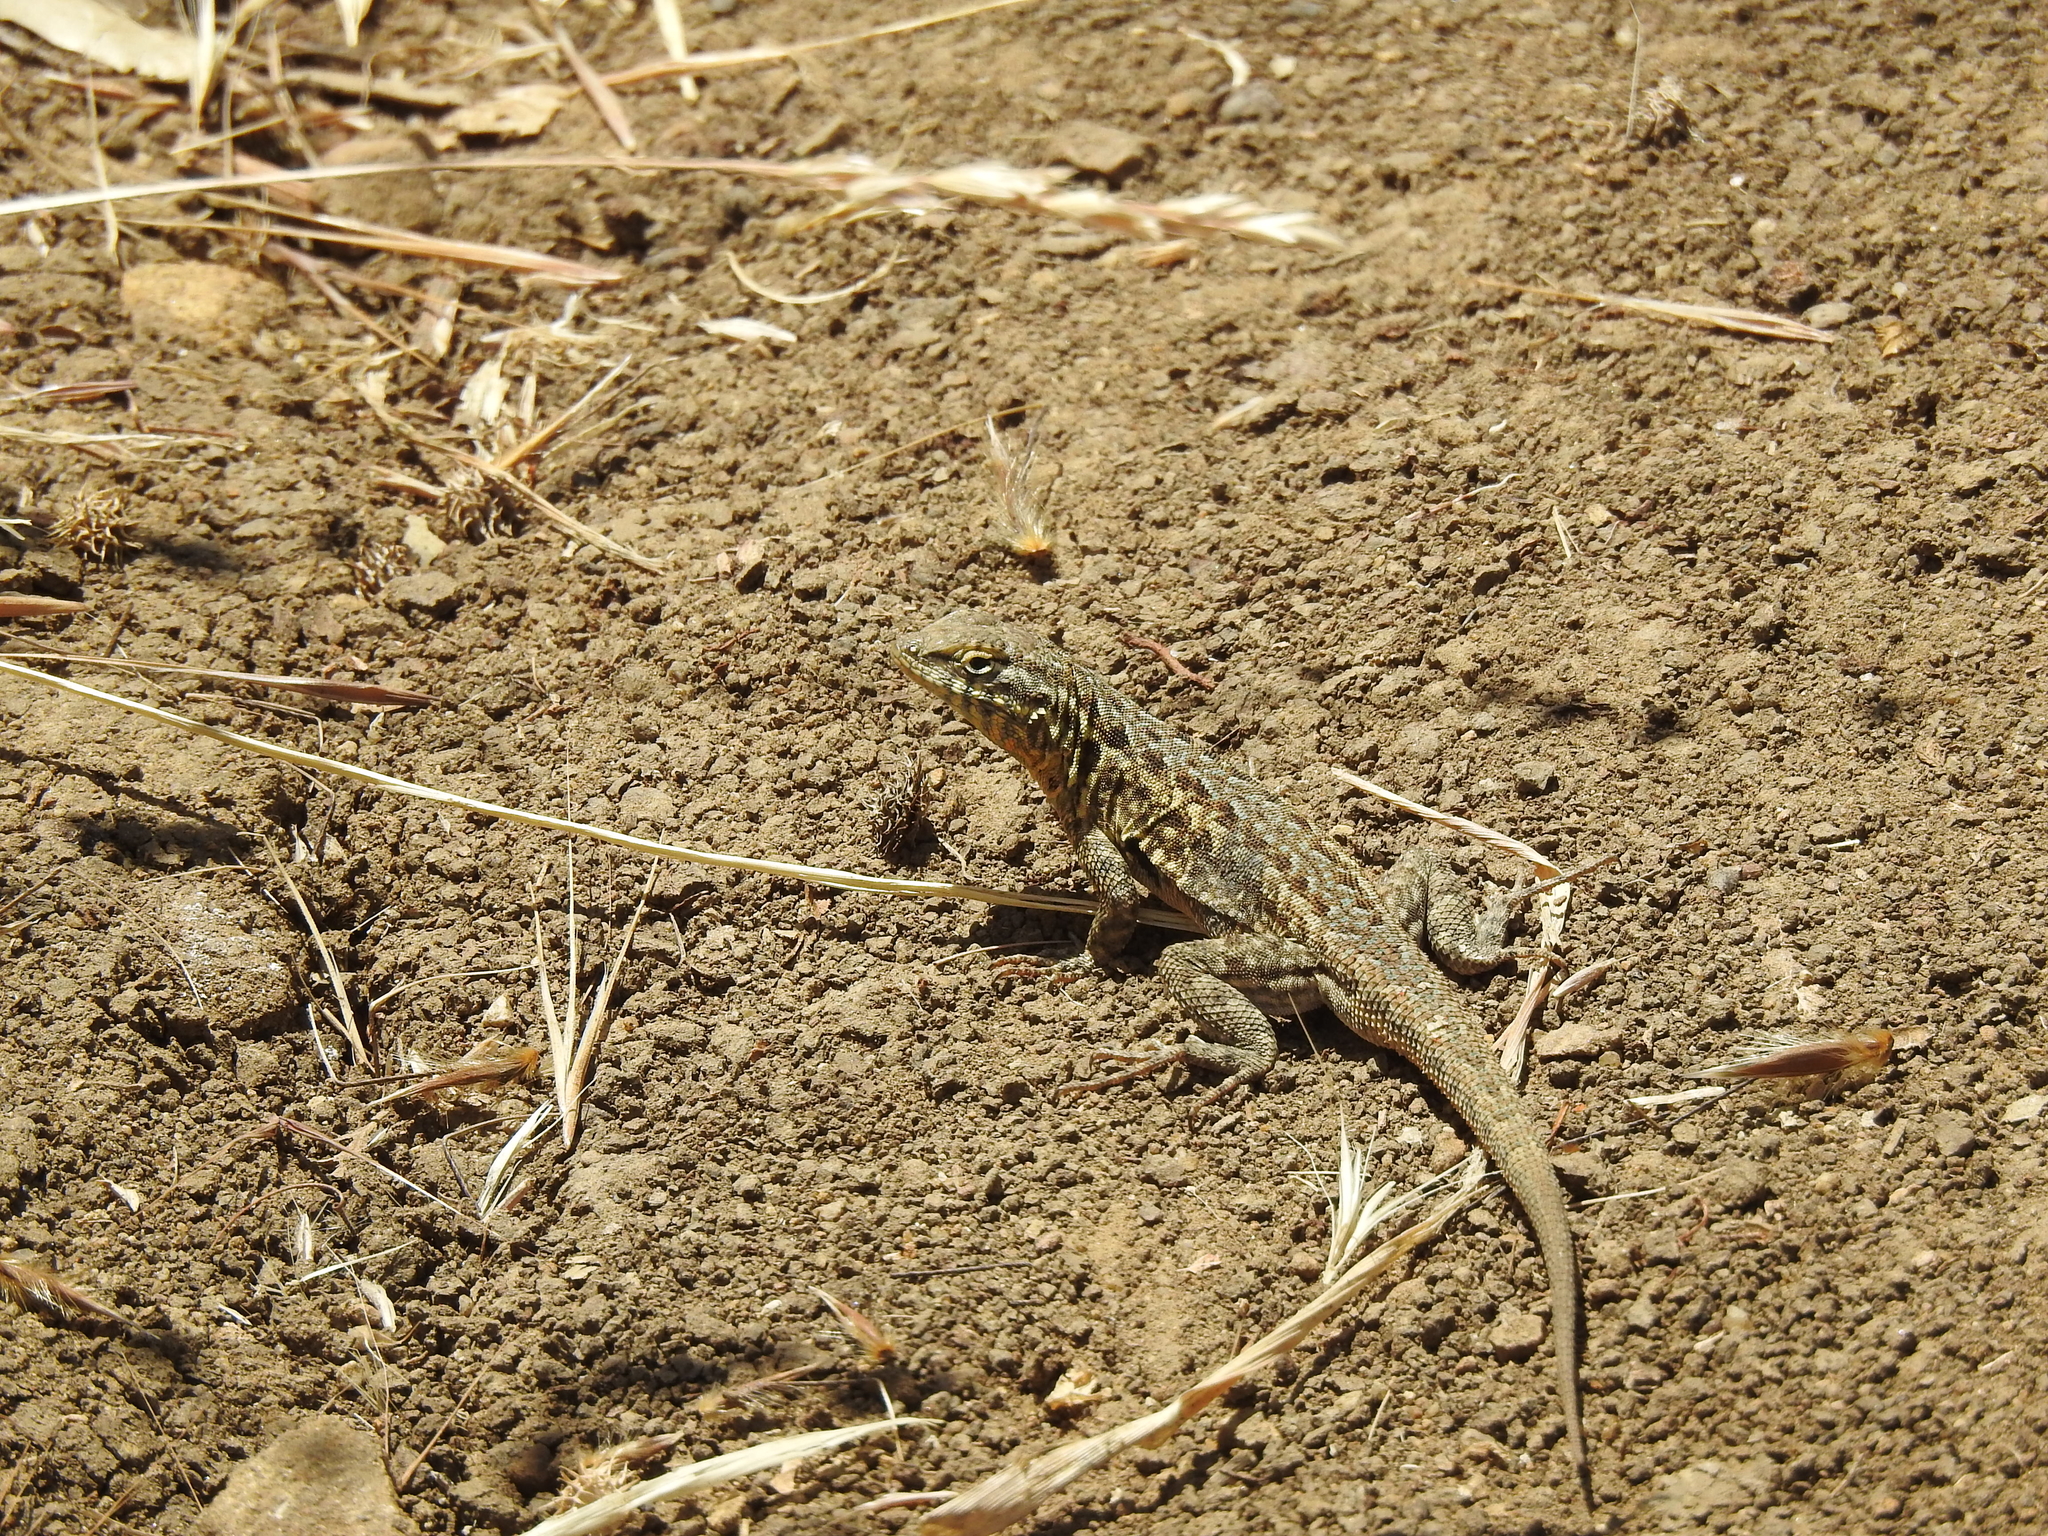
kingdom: Animalia
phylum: Chordata
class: Squamata
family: Phrynosomatidae
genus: Uta
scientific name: Uta stansburiana
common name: Side-blotched lizard
